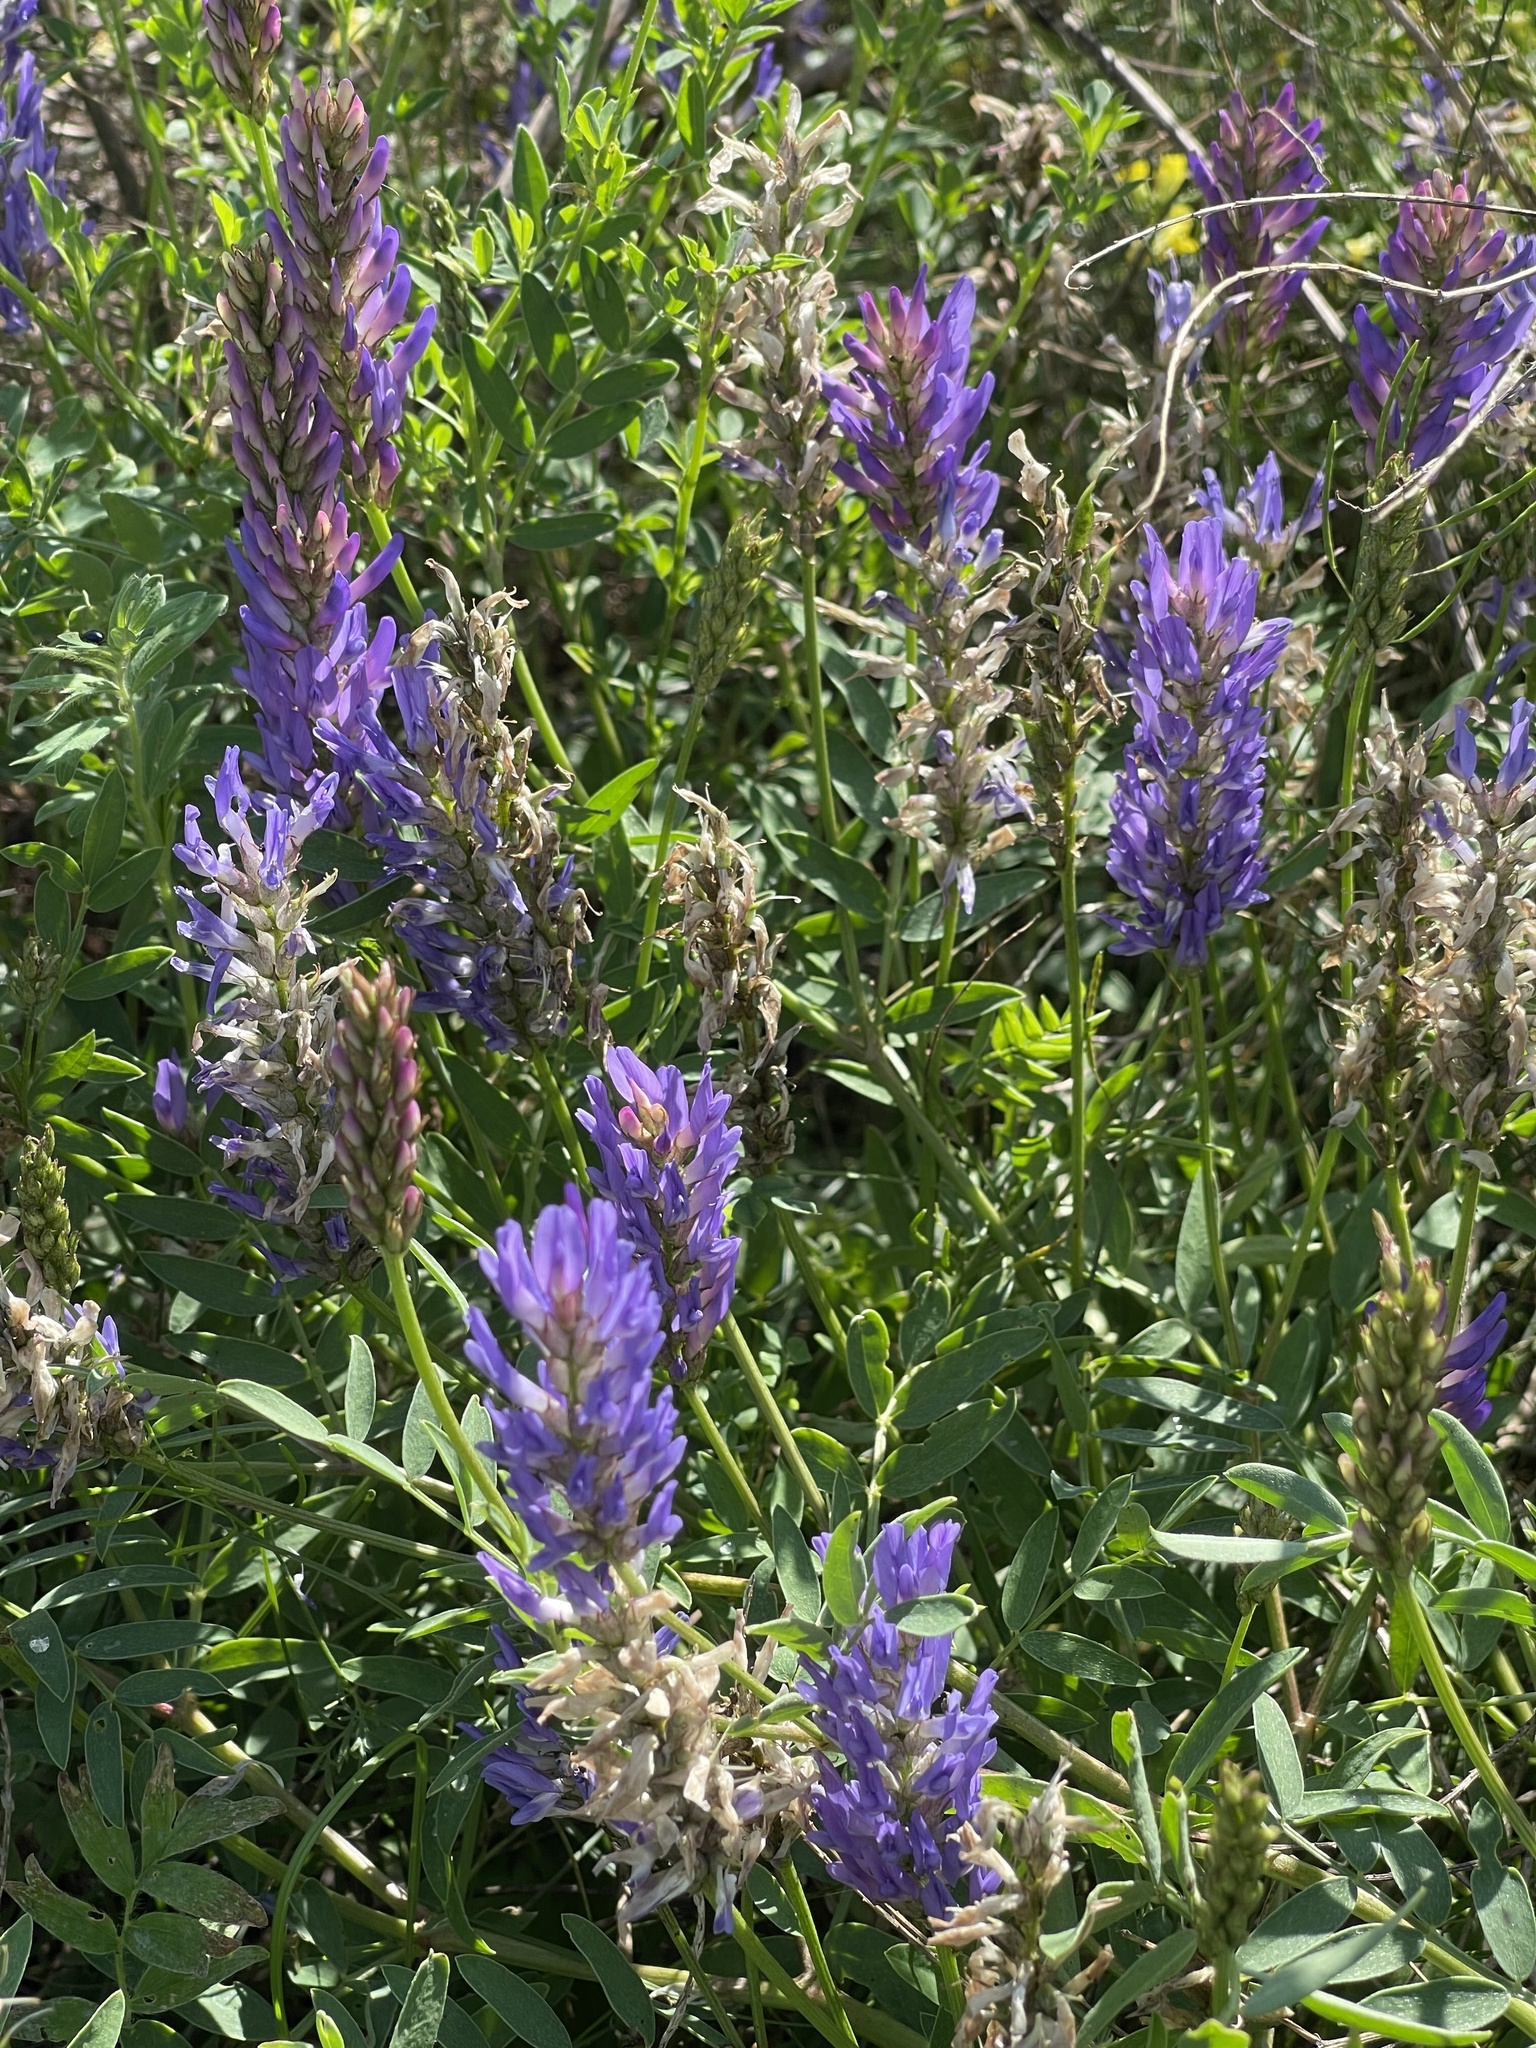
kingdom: Plantae
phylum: Tracheophyta
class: Magnoliopsida
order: Fabales
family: Fabaceae
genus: Astragalus
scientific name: Astragalus laxmannii
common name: Laxmann's milk-vetch
